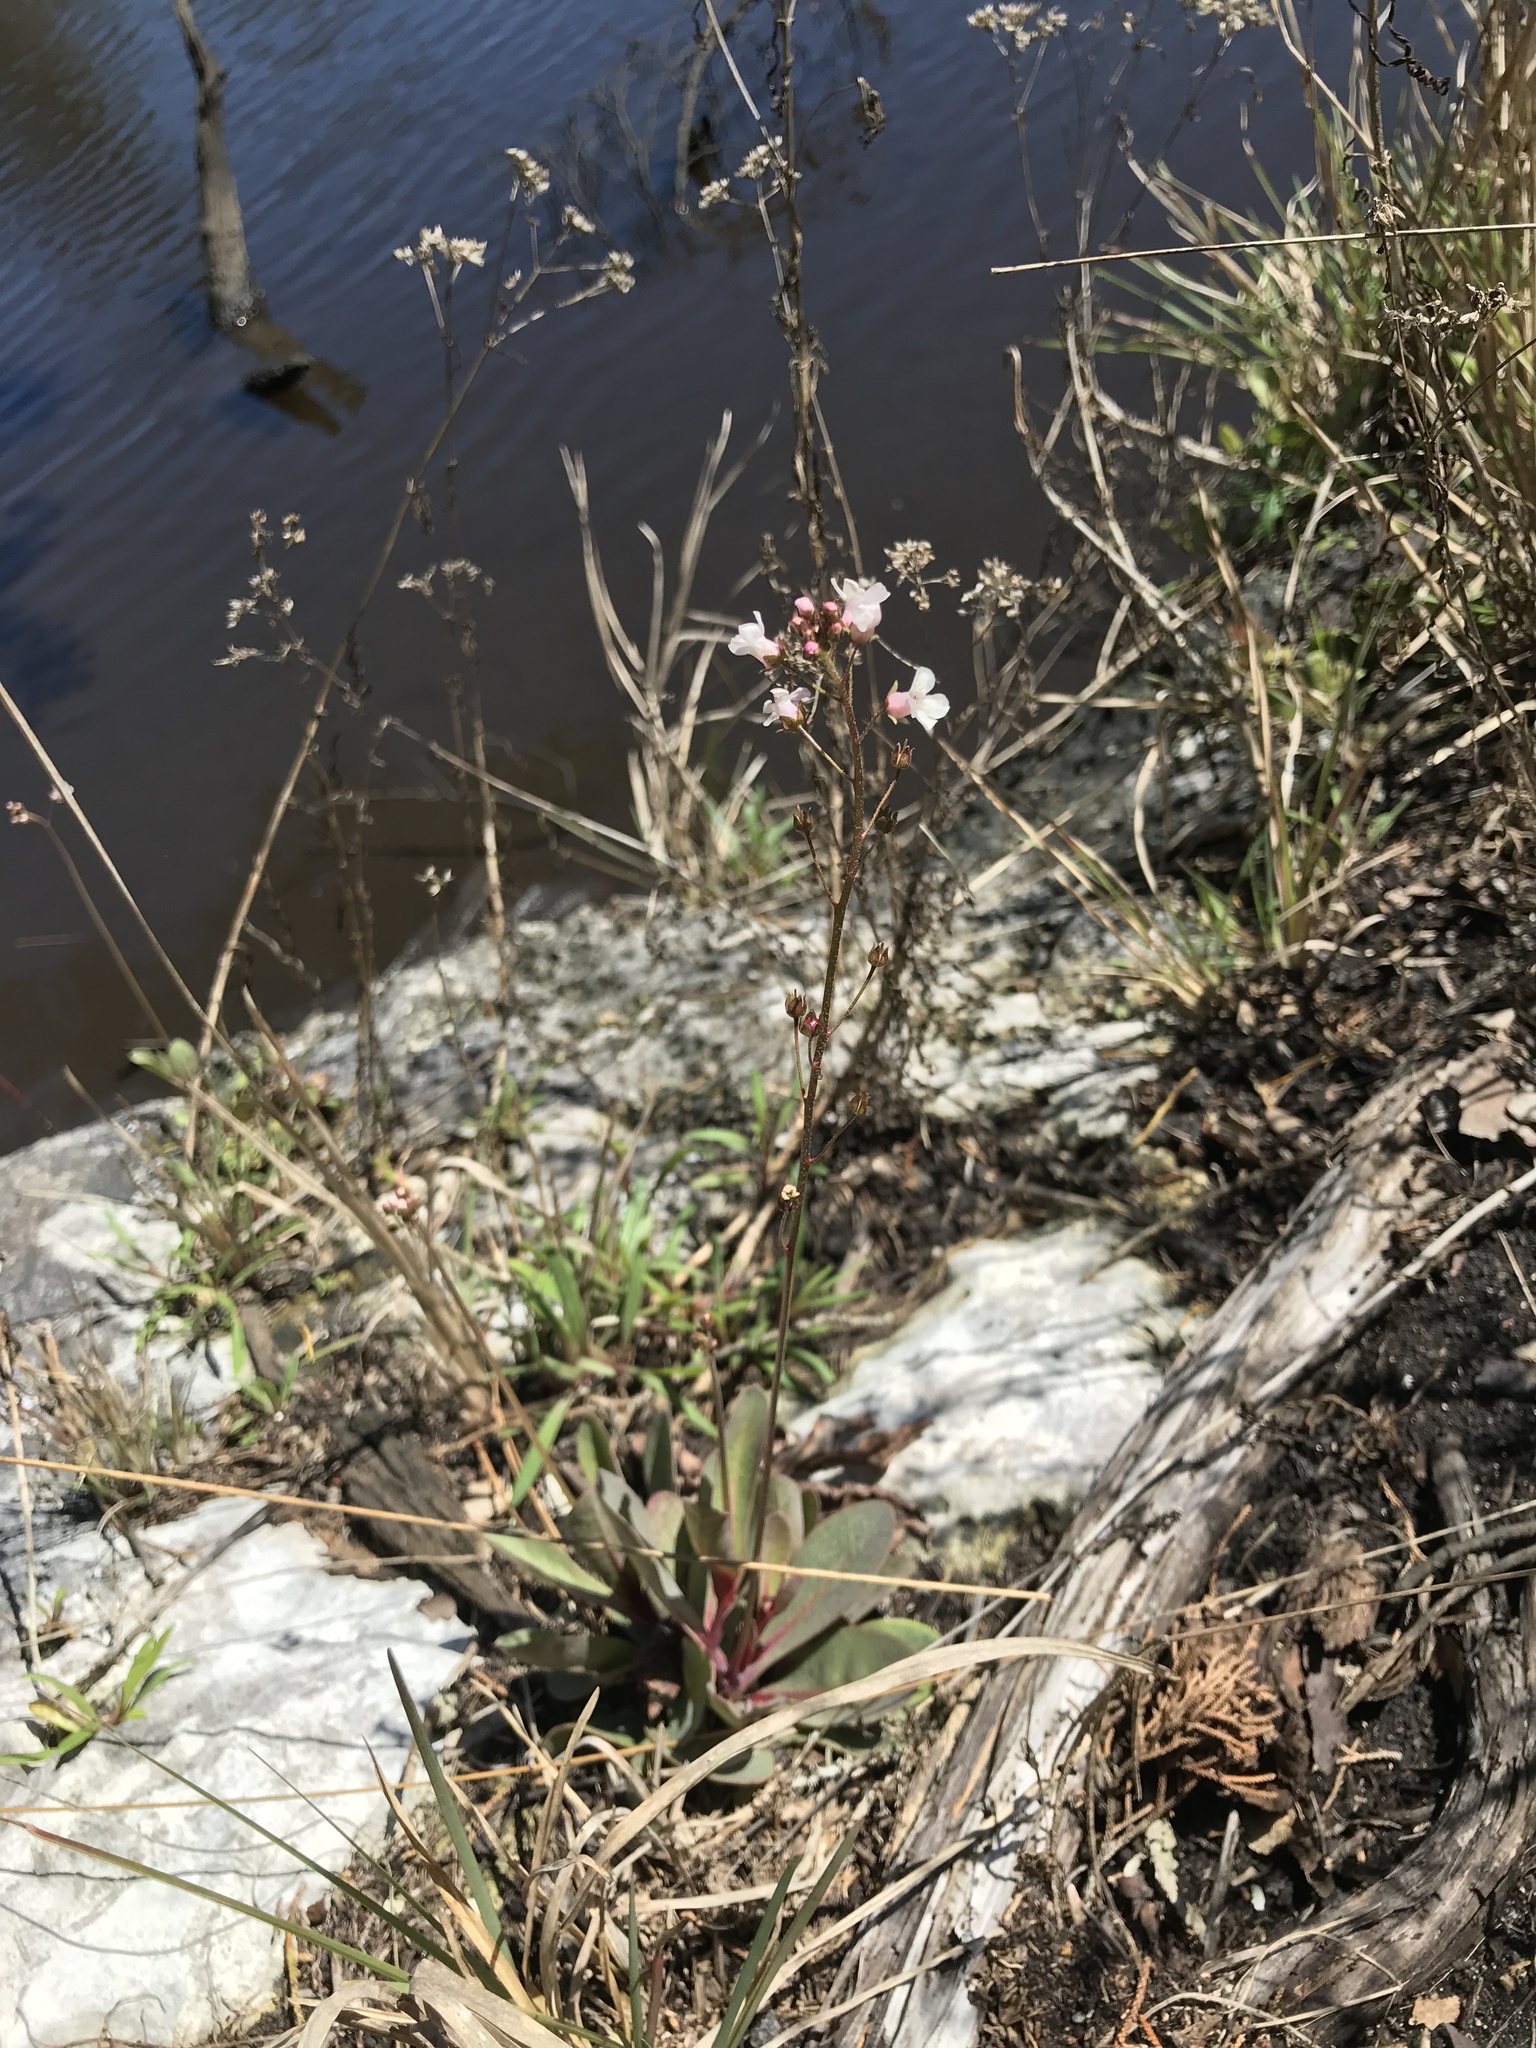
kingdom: Plantae
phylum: Tracheophyta
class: Magnoliopsida
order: Ericales
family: Primulaceae
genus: Samolus
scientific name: Samolus ebracteatus
